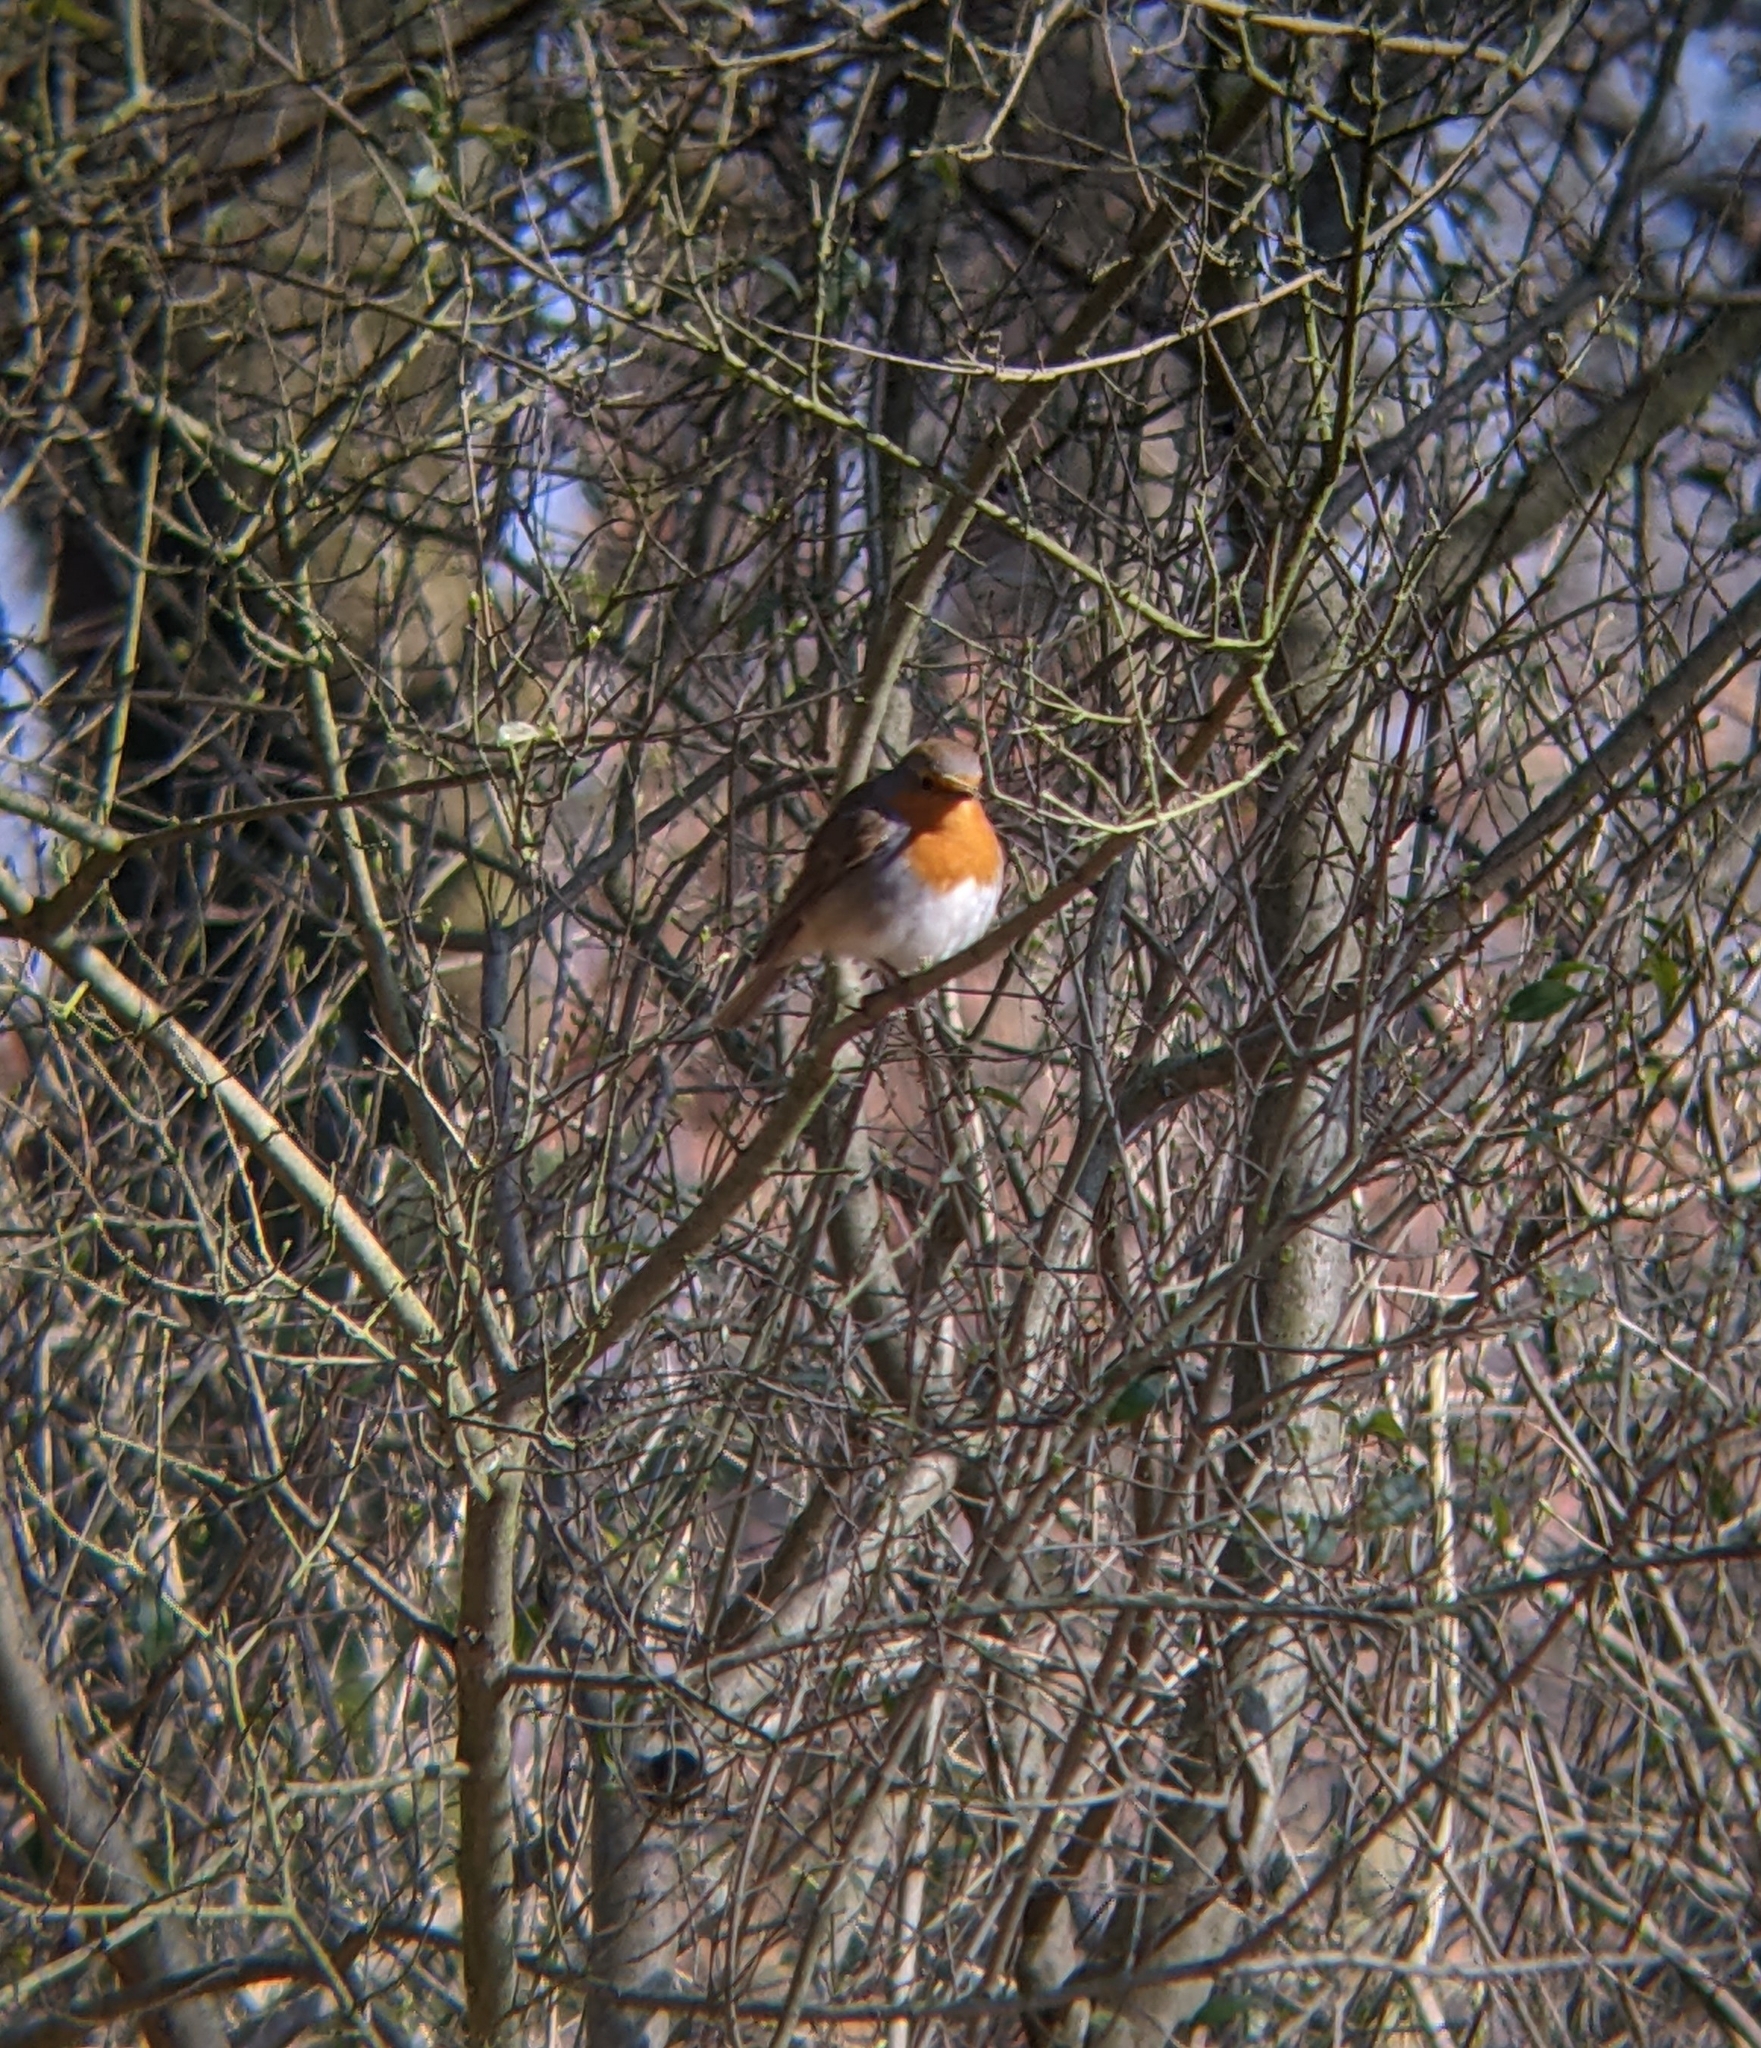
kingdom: Animalia
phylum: Chordata
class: Aves
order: Passeriformes
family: Muscicapidae
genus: Erithacus
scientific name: Erithacus rubecula
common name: European robin
